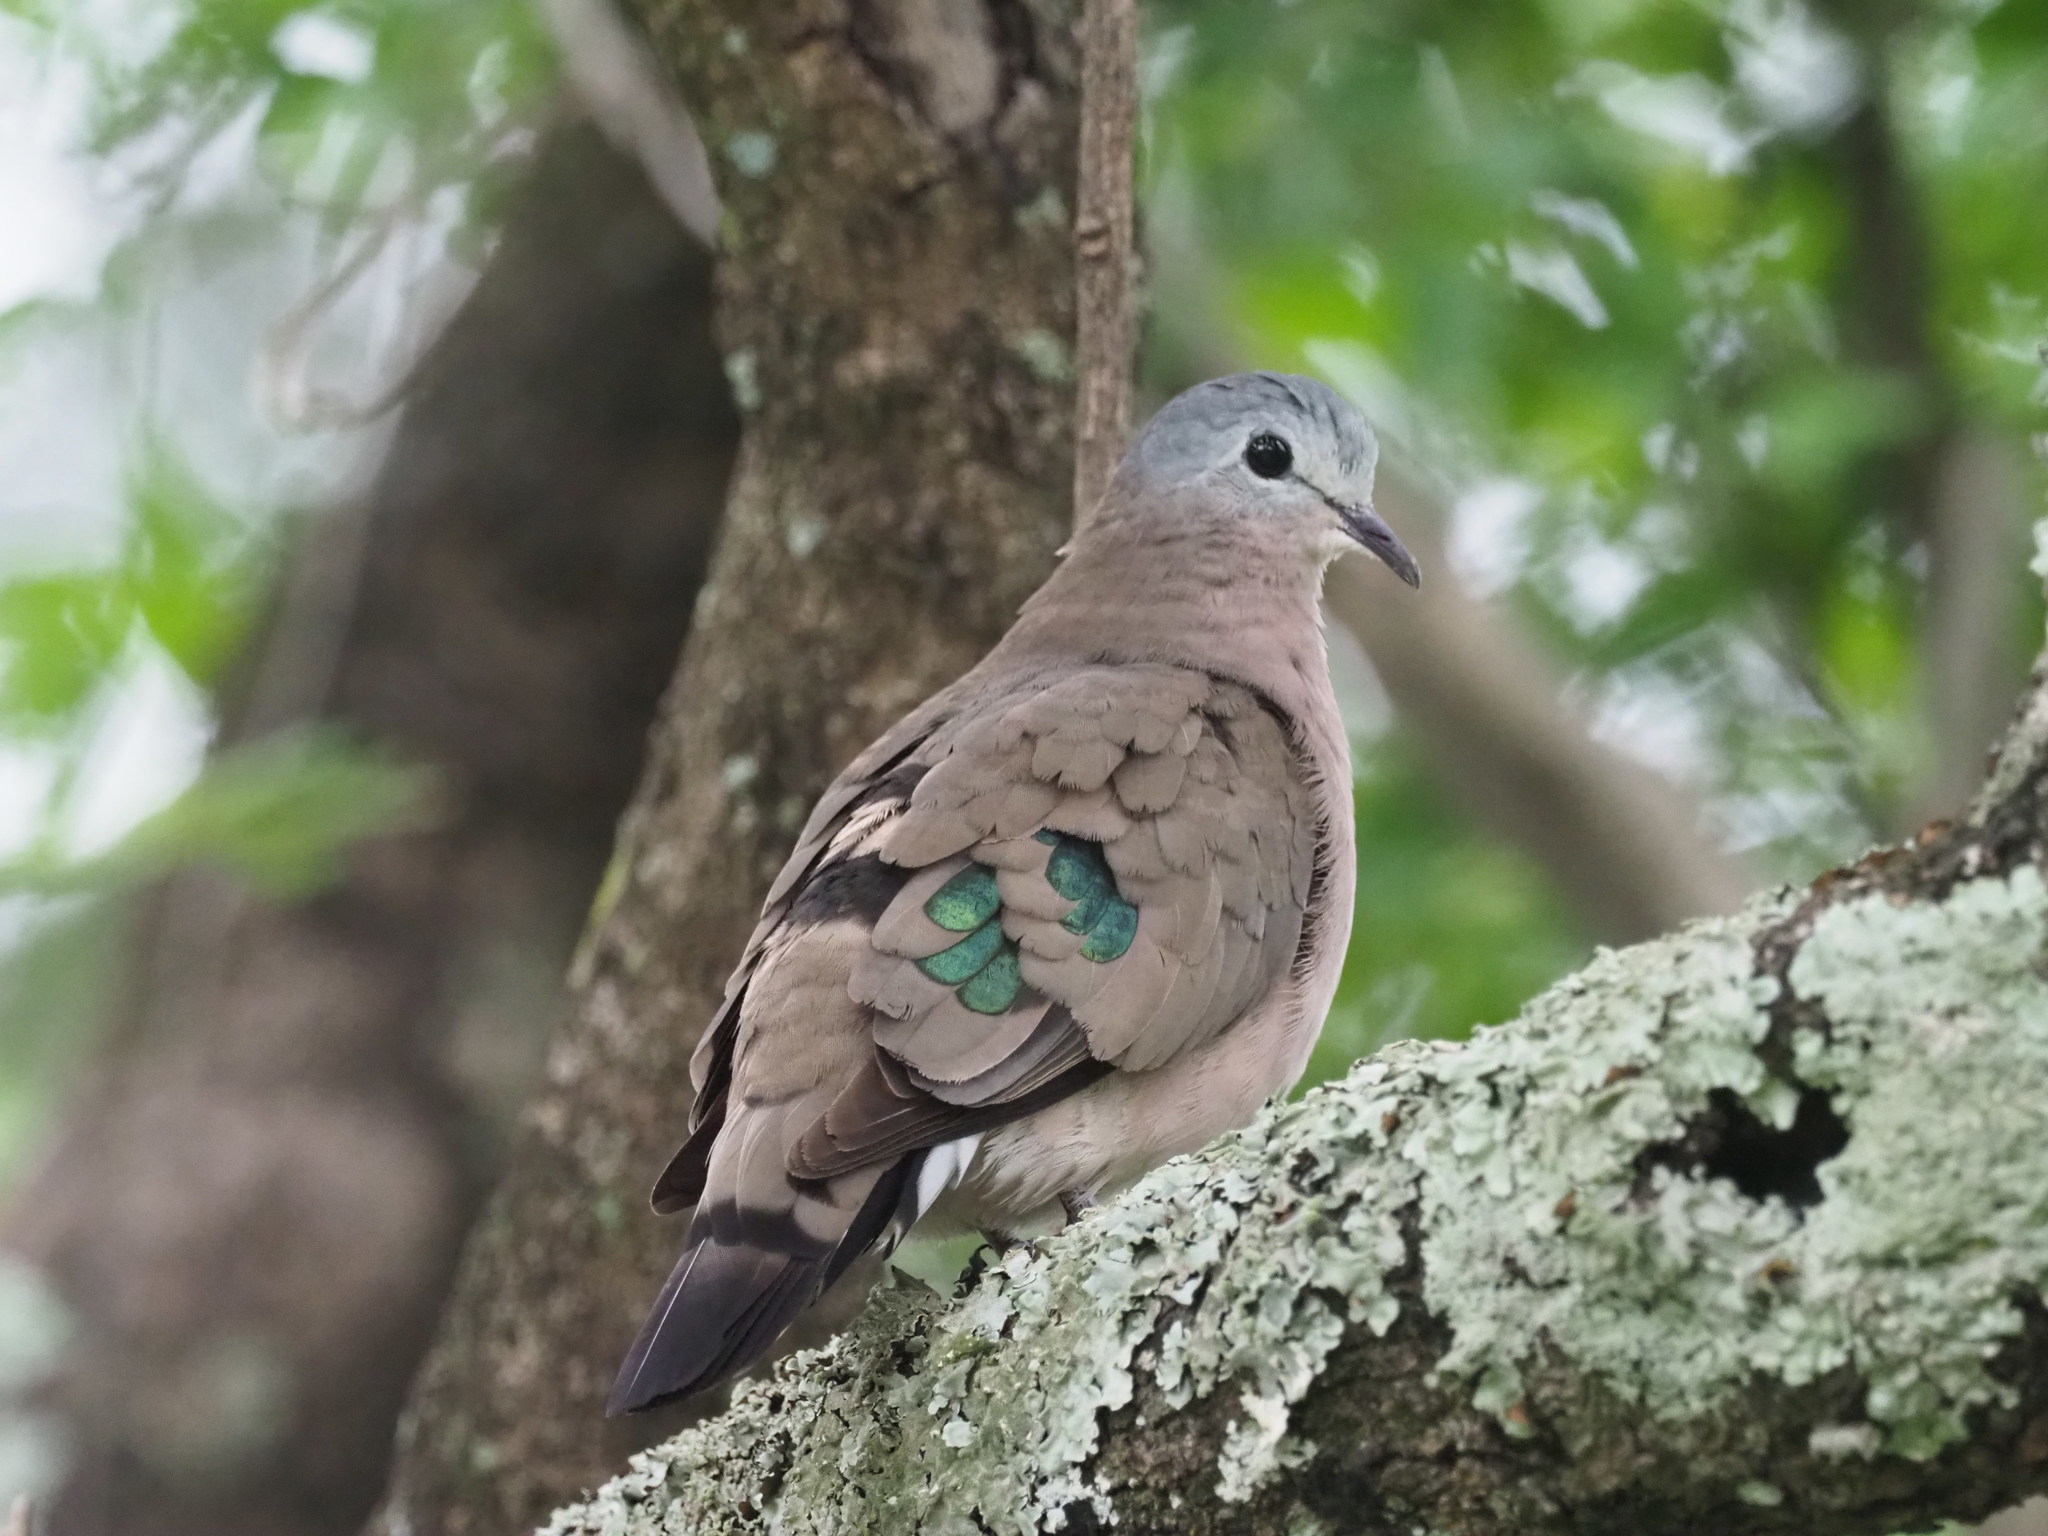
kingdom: Animalia
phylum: Chordata
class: Aves
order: Columbiformes
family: Columbidae
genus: Turtur
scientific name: Turtur chalcospilos
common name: Emerald-spotted wood dove
